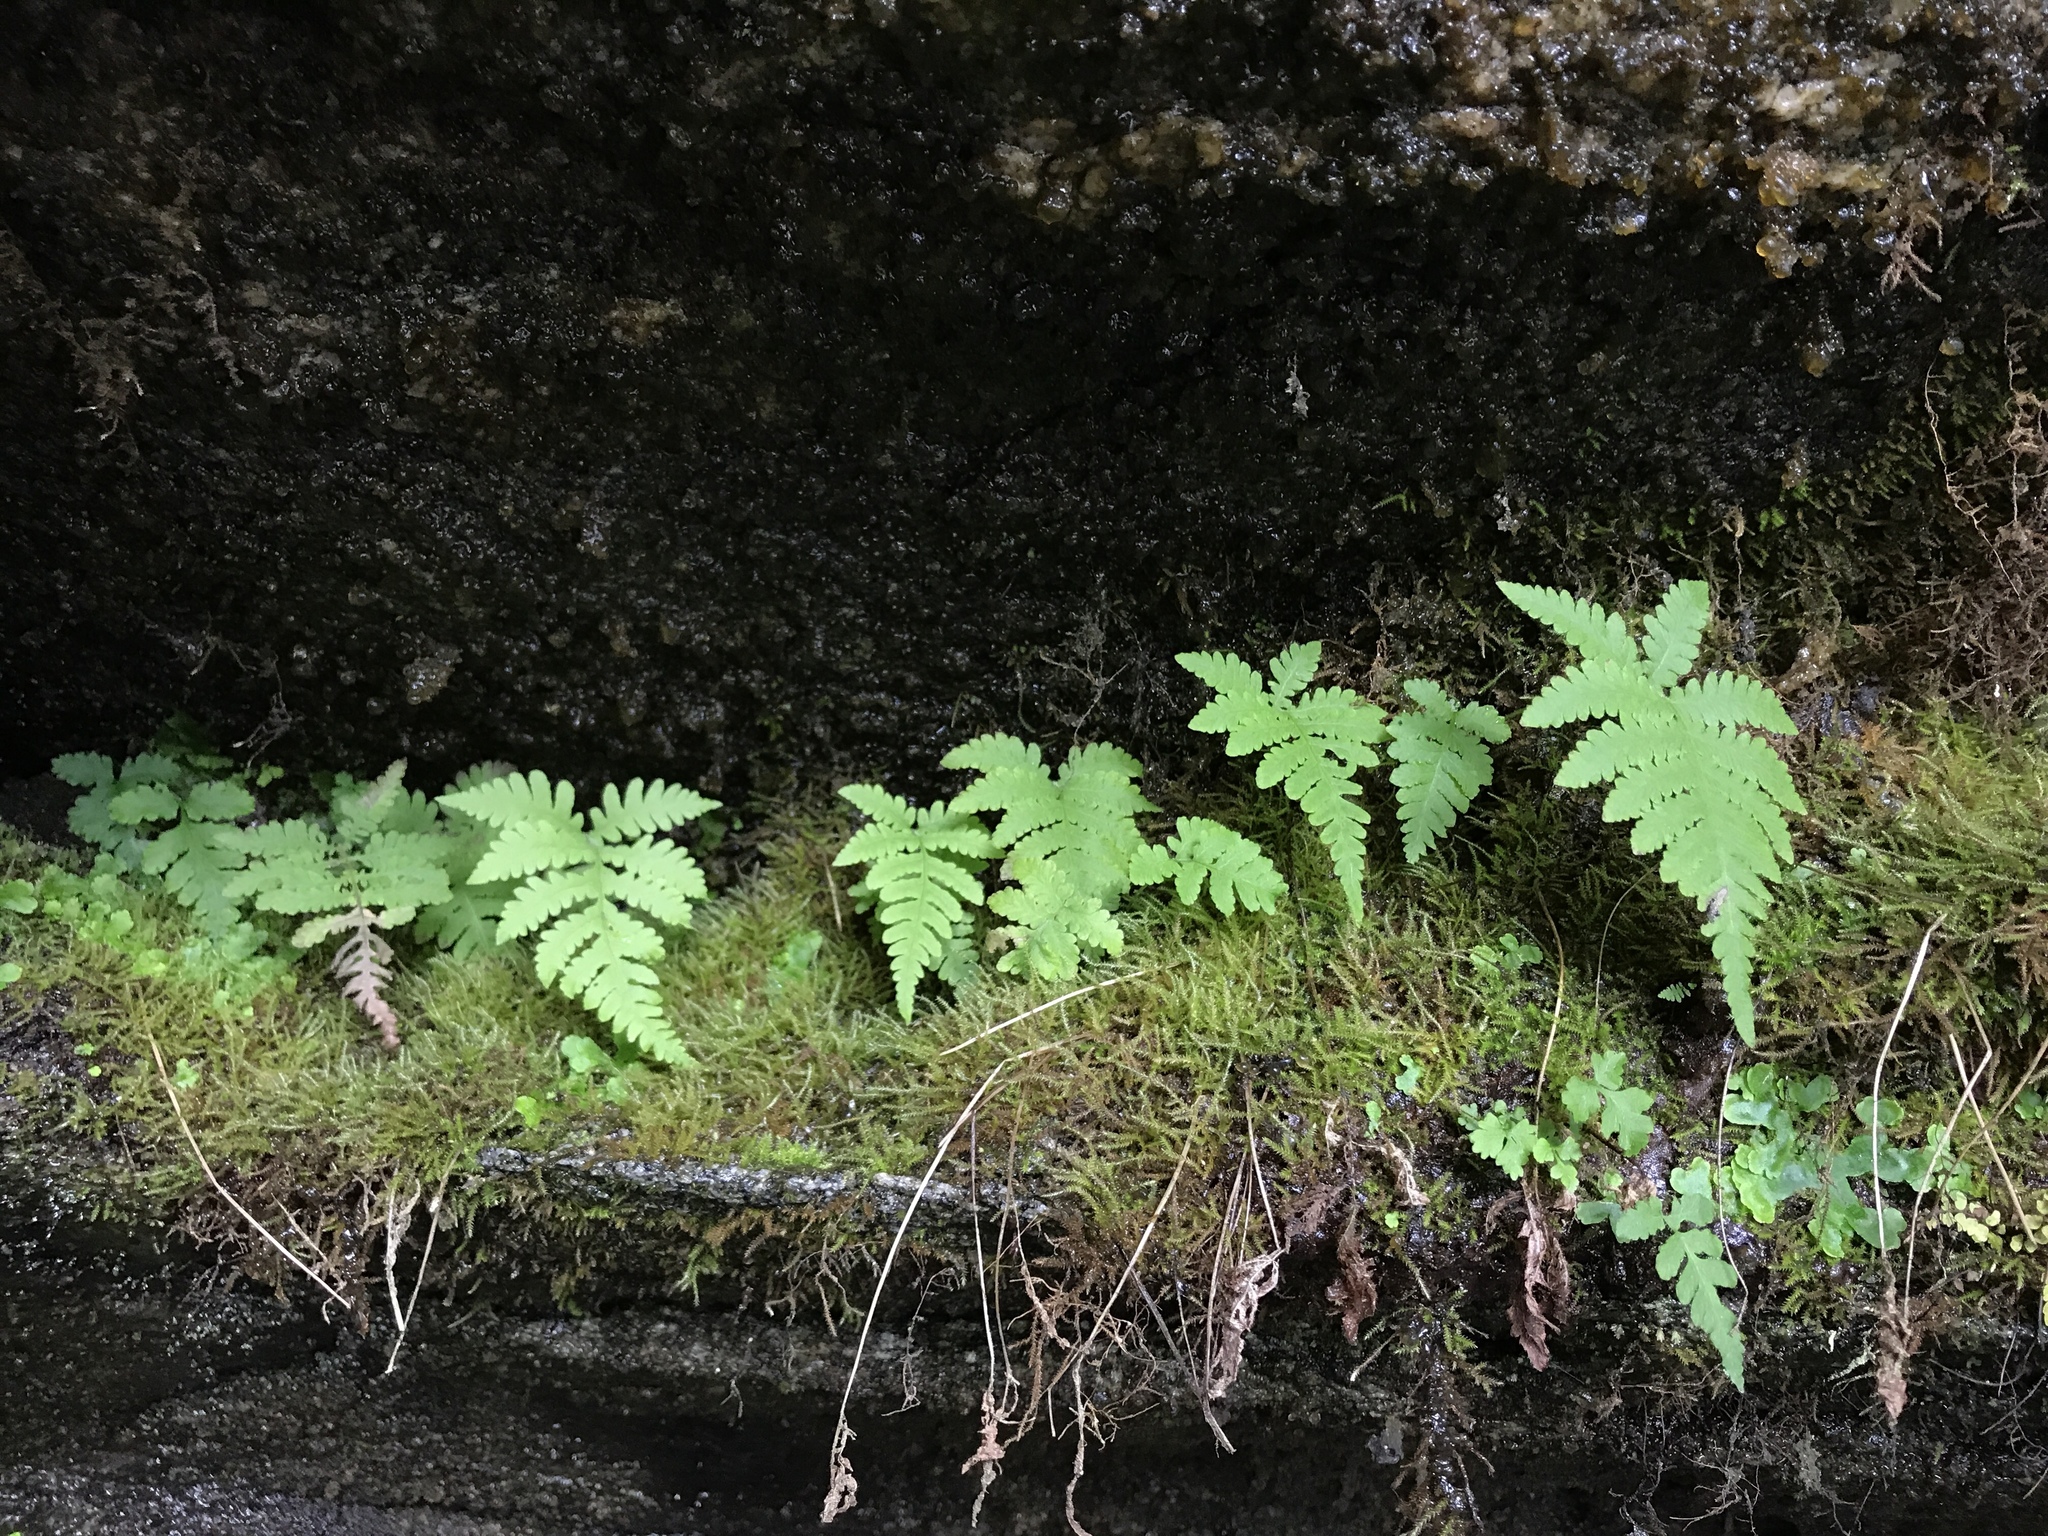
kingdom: Plantae
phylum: Tracheophyta
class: Polypodiopsida
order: Polypodiales
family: Thelypteridaceae
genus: Phegopteris
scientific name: Phegopteris connectilis
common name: Beech fern
